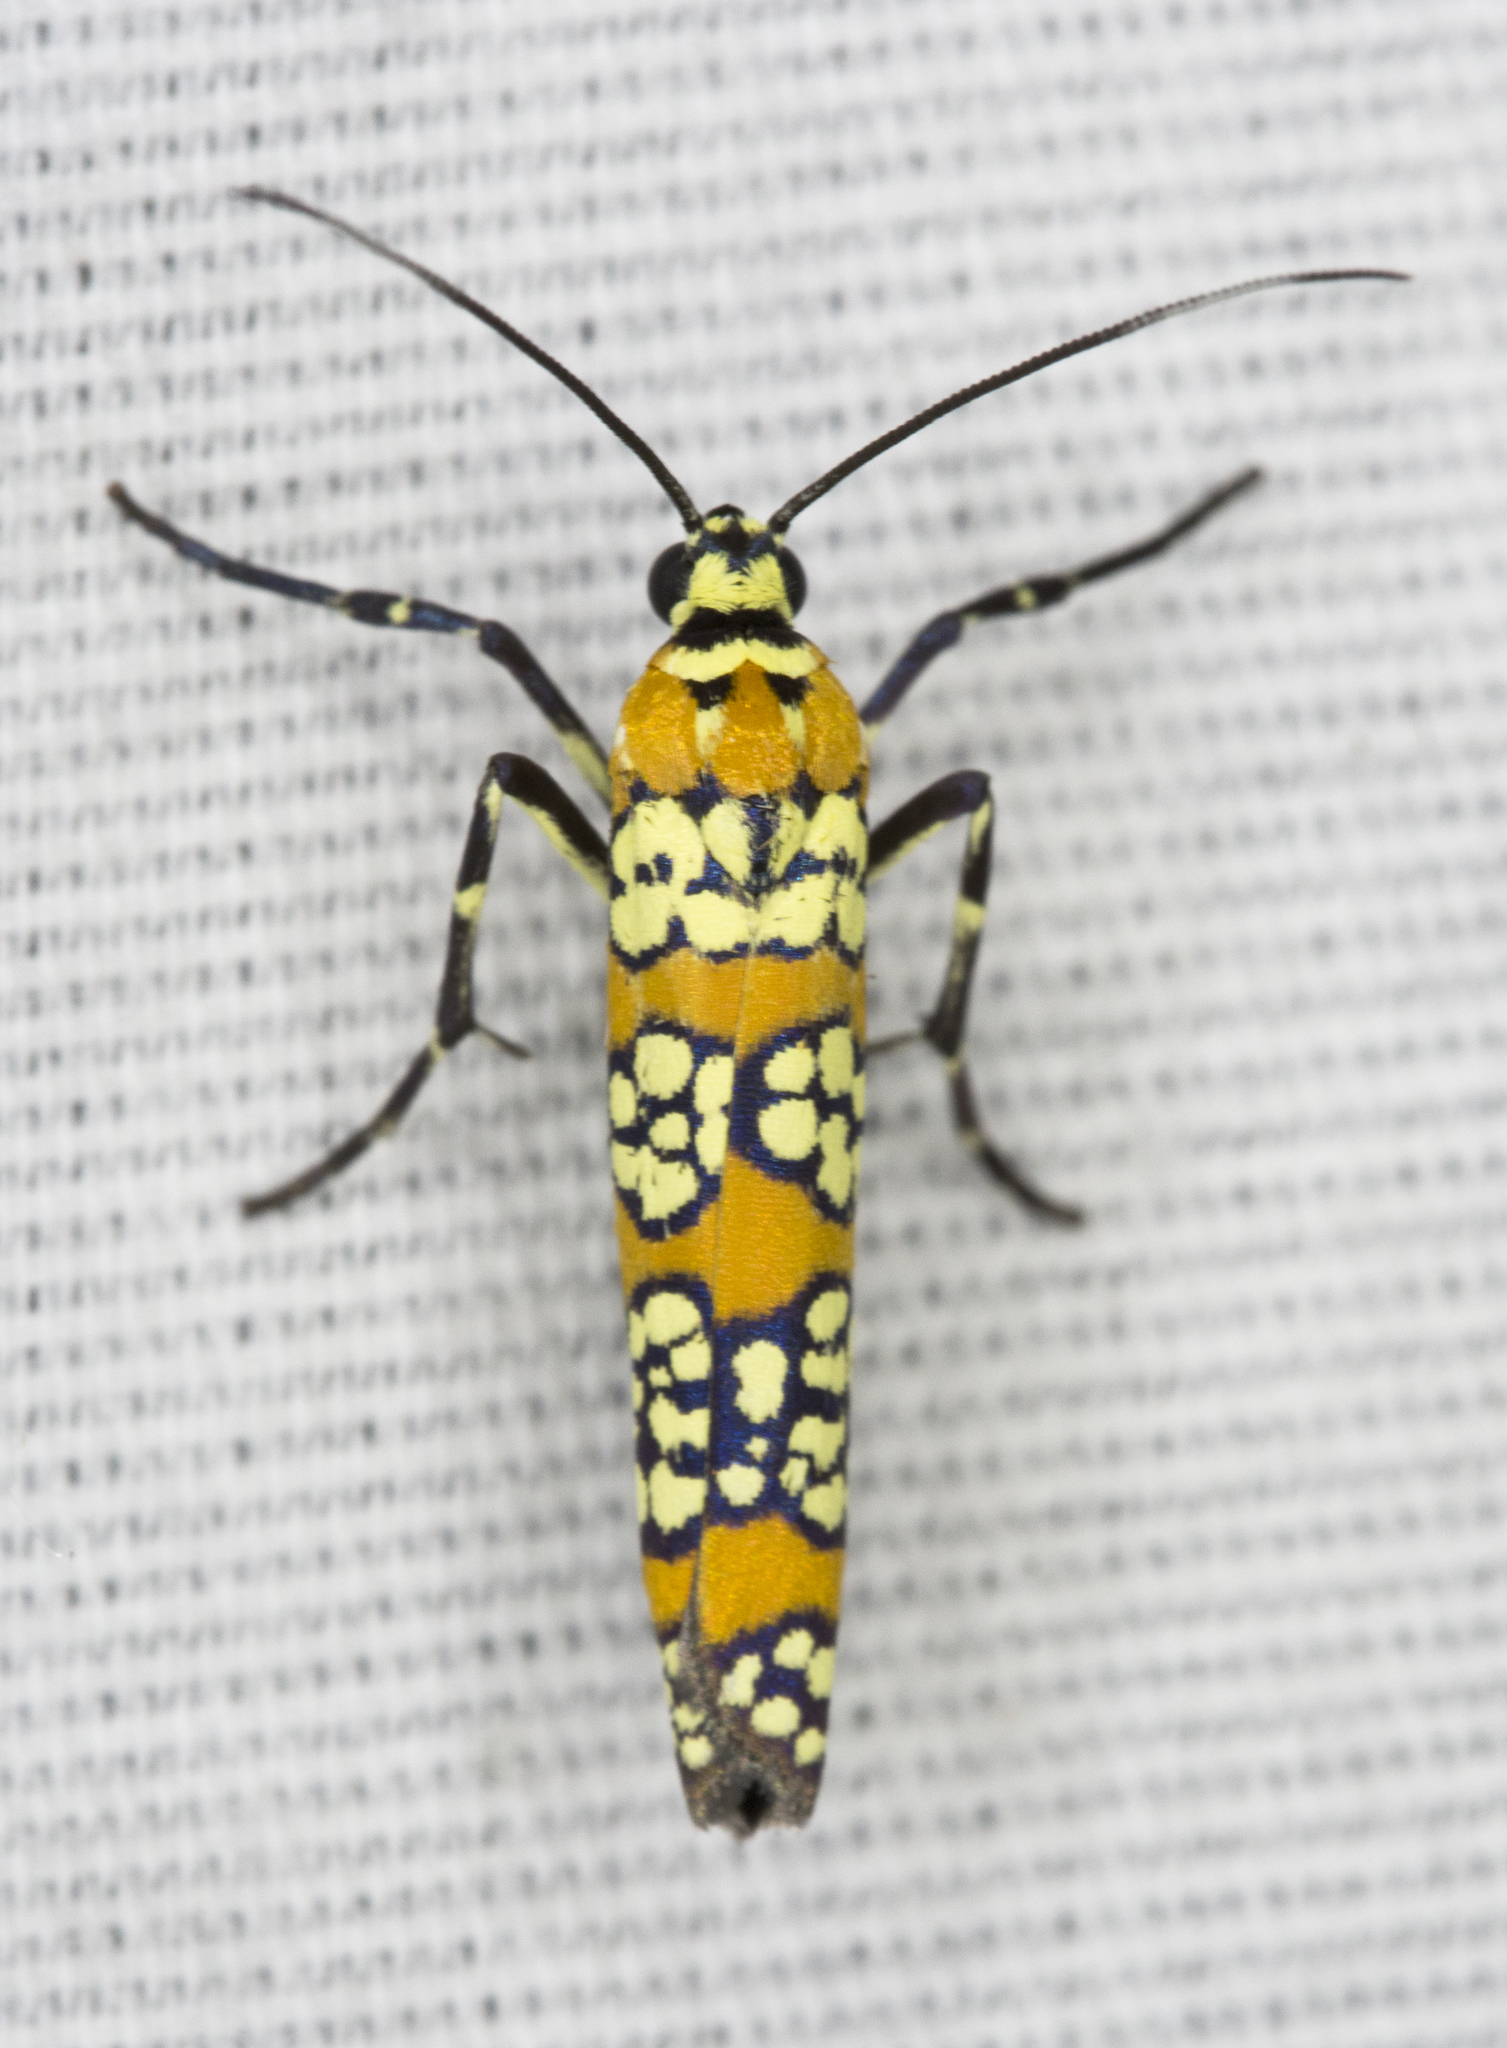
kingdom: Animalia
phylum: Arthropoda
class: Insecta
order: Lepidoptera
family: Attevidae
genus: Atteva
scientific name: Atteva punctella
